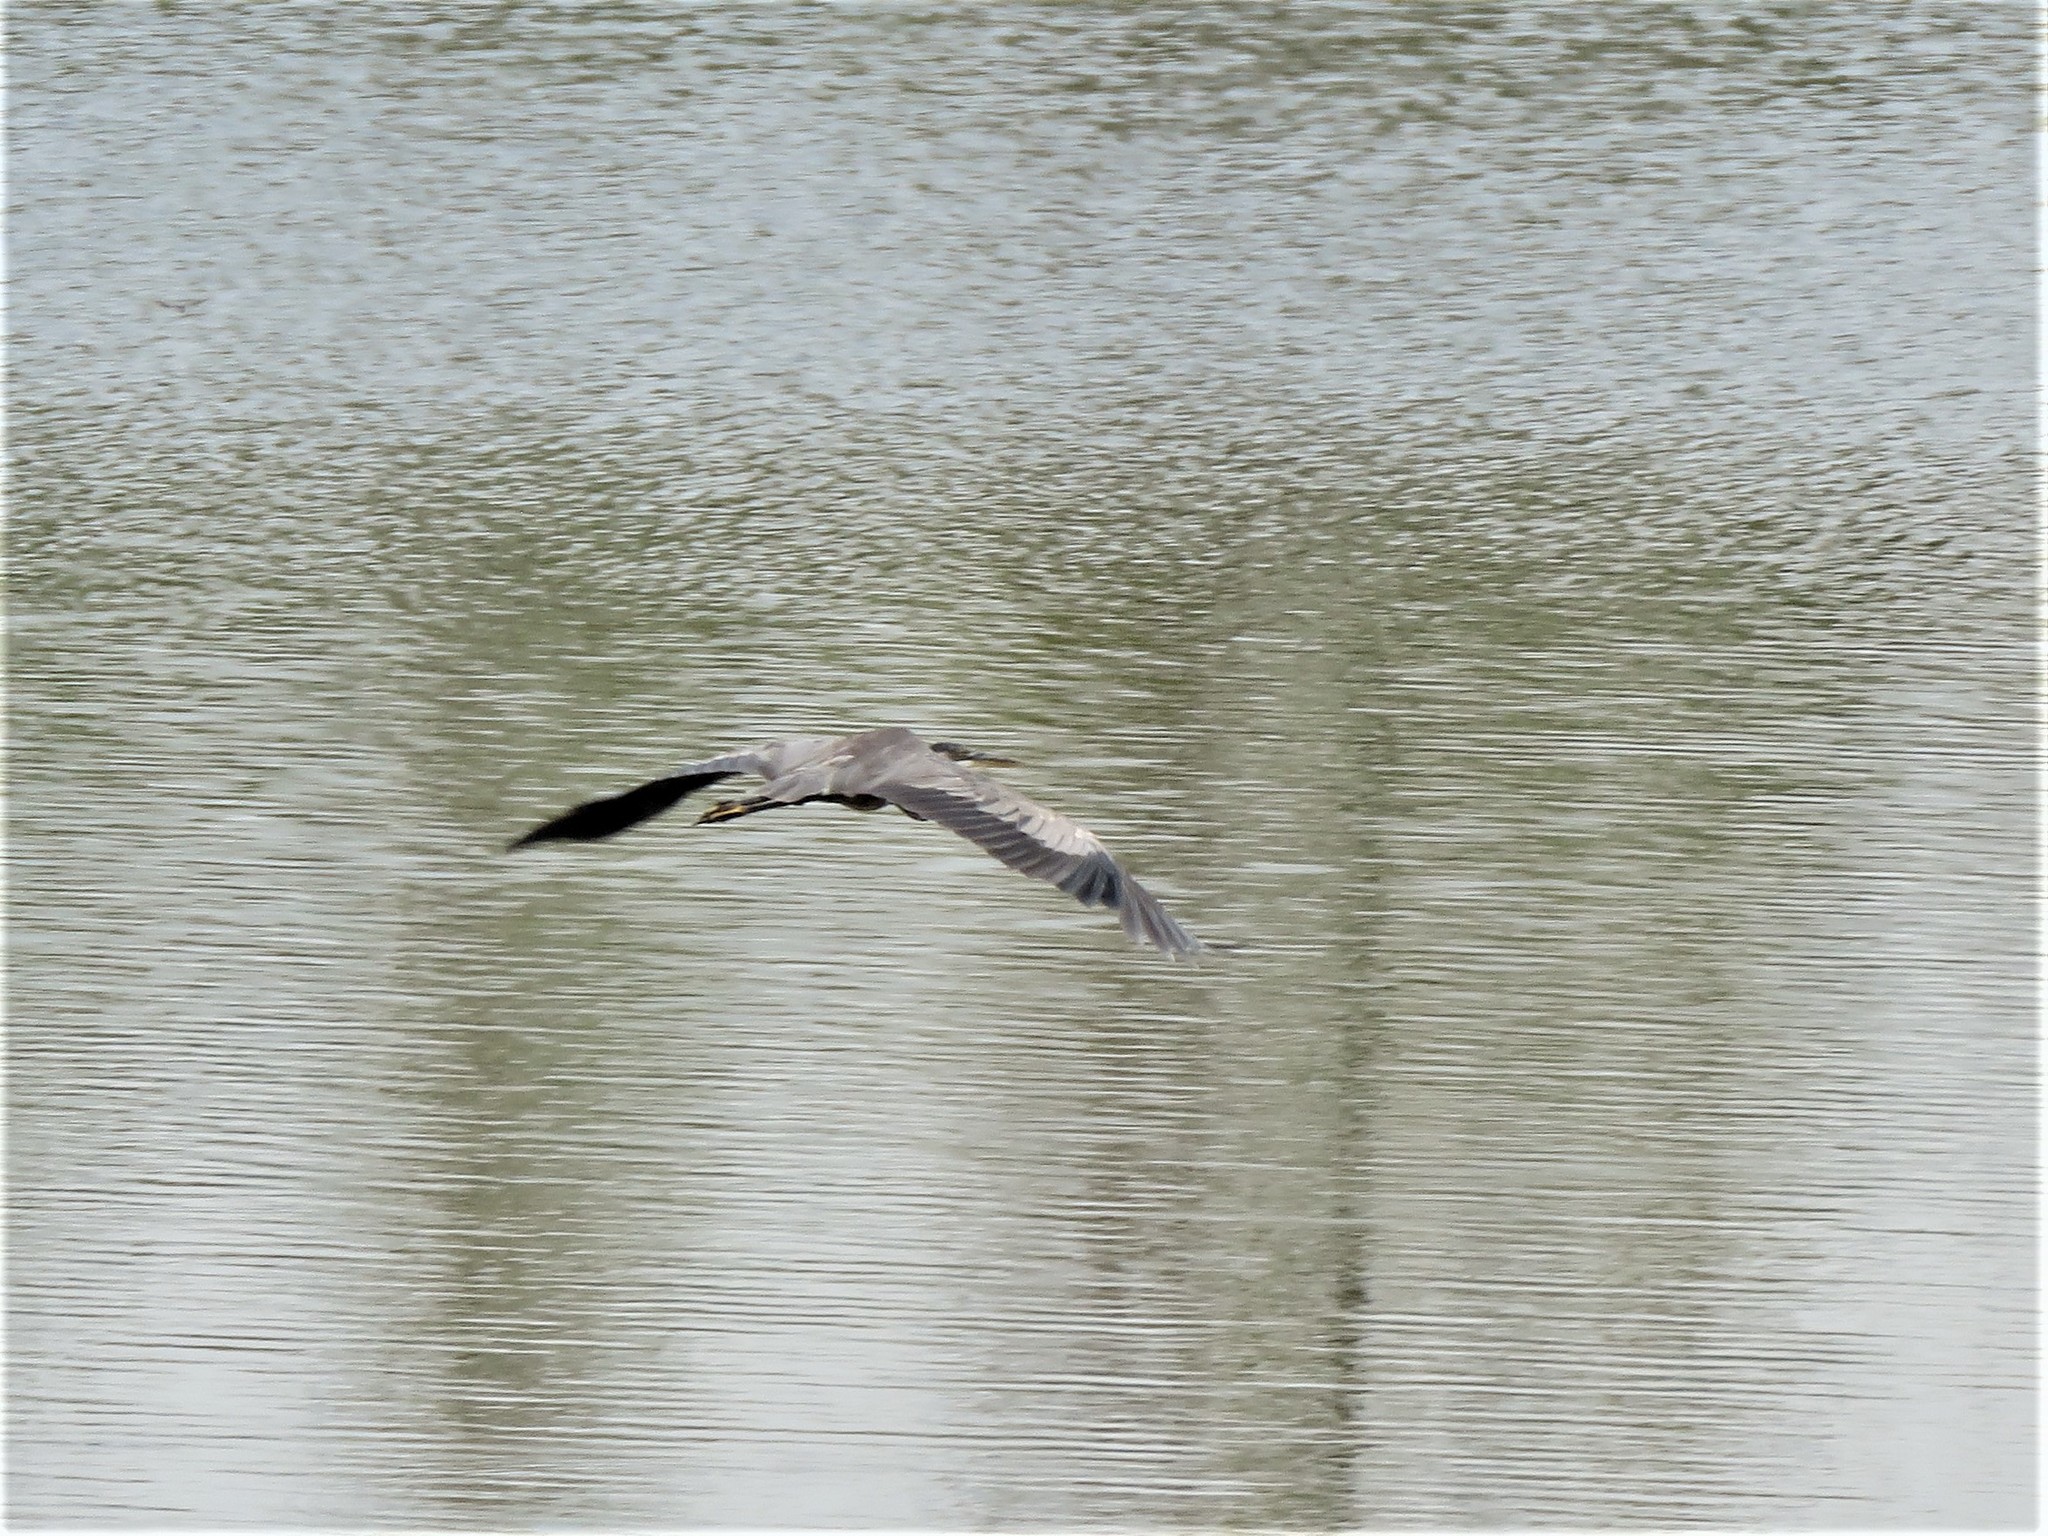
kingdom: Animalia
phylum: Chordata
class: Aves
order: Pelecaniformes
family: Ardeidae
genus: Ardea
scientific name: Ardea herodias
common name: Great blue heron
